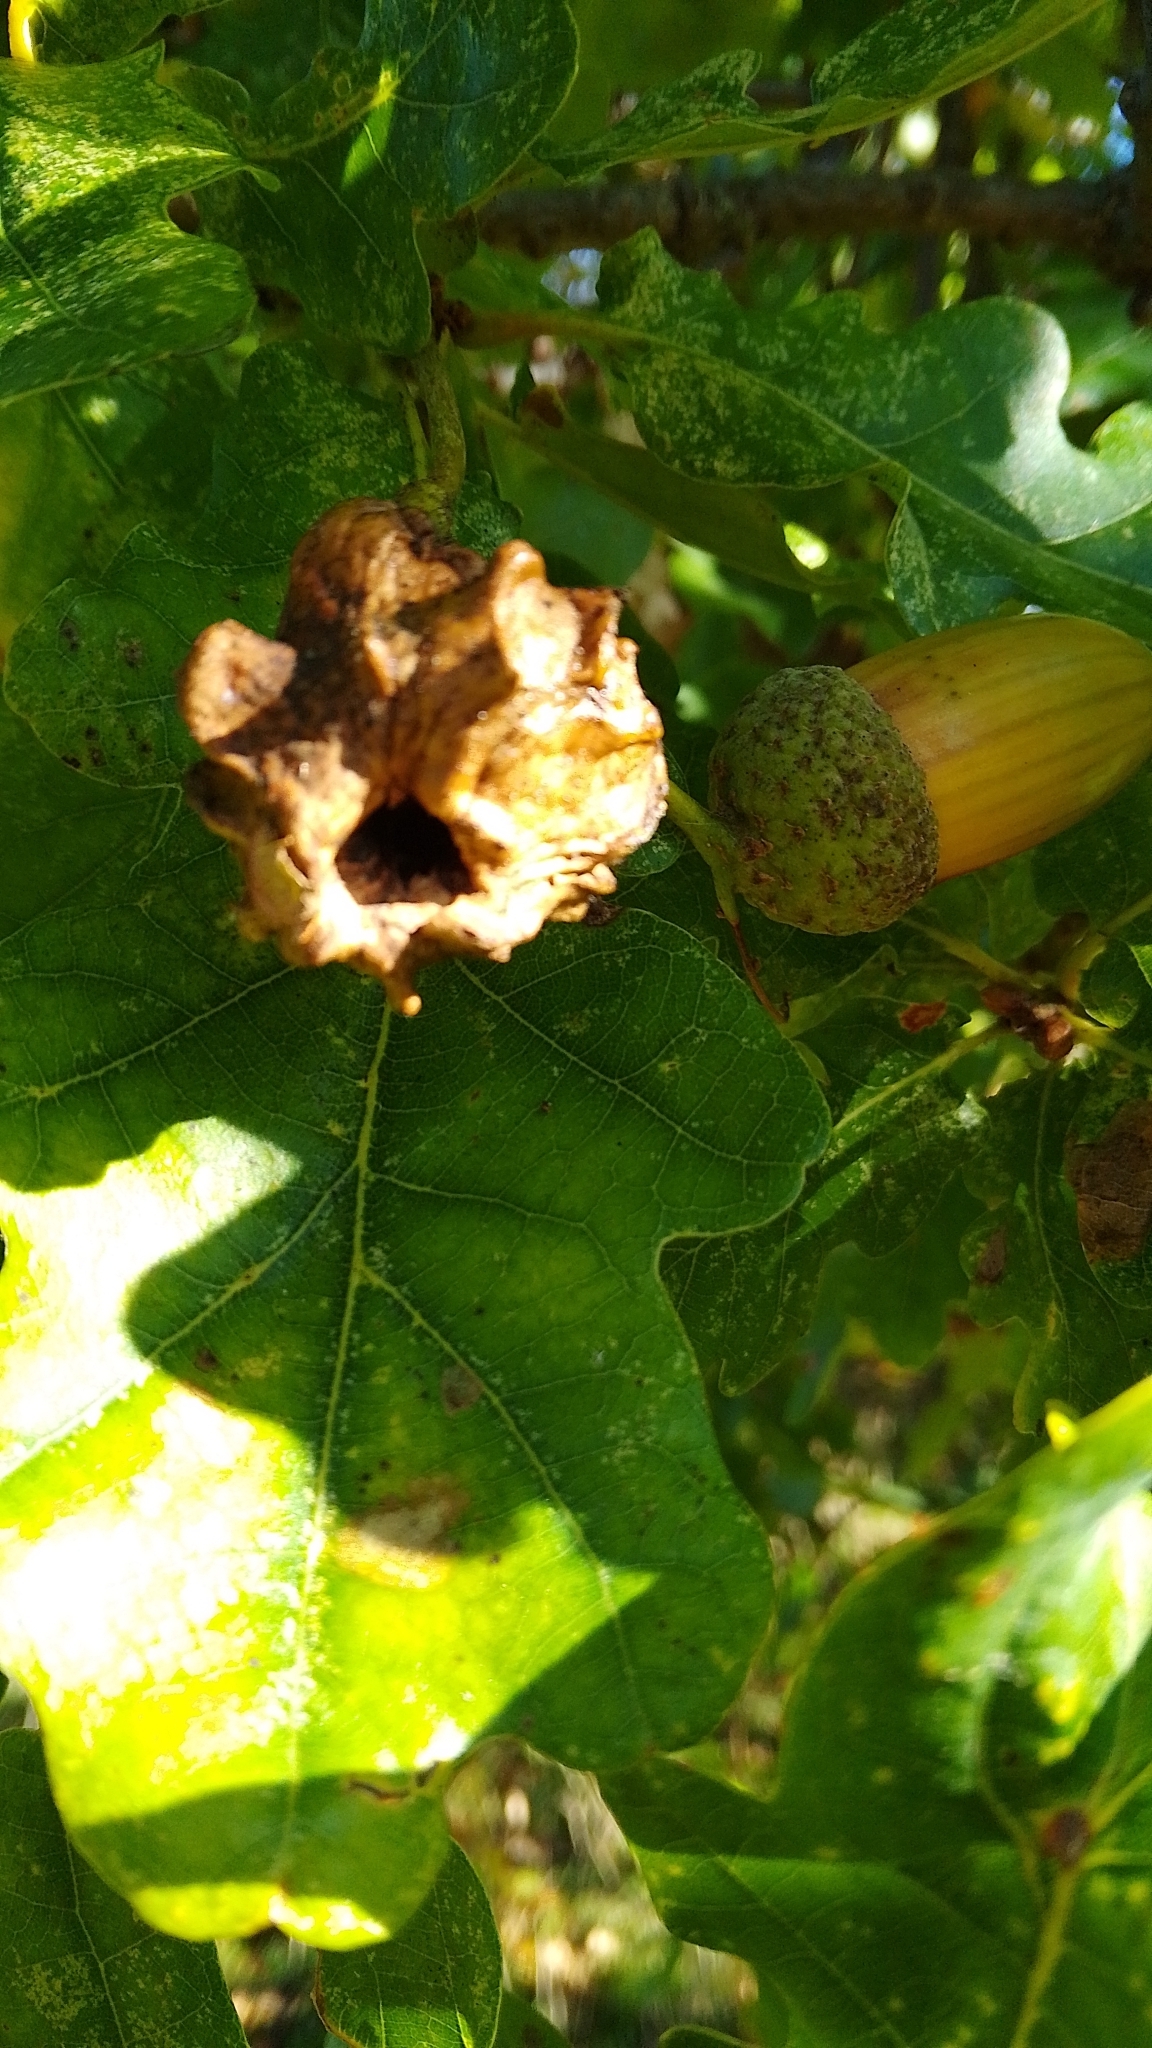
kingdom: Animalia
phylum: Arthropoda
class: Insecta
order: Hymenoptera
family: Cynipidae
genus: Andricus
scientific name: Andricus quercuscalicis
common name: Knopper gall
